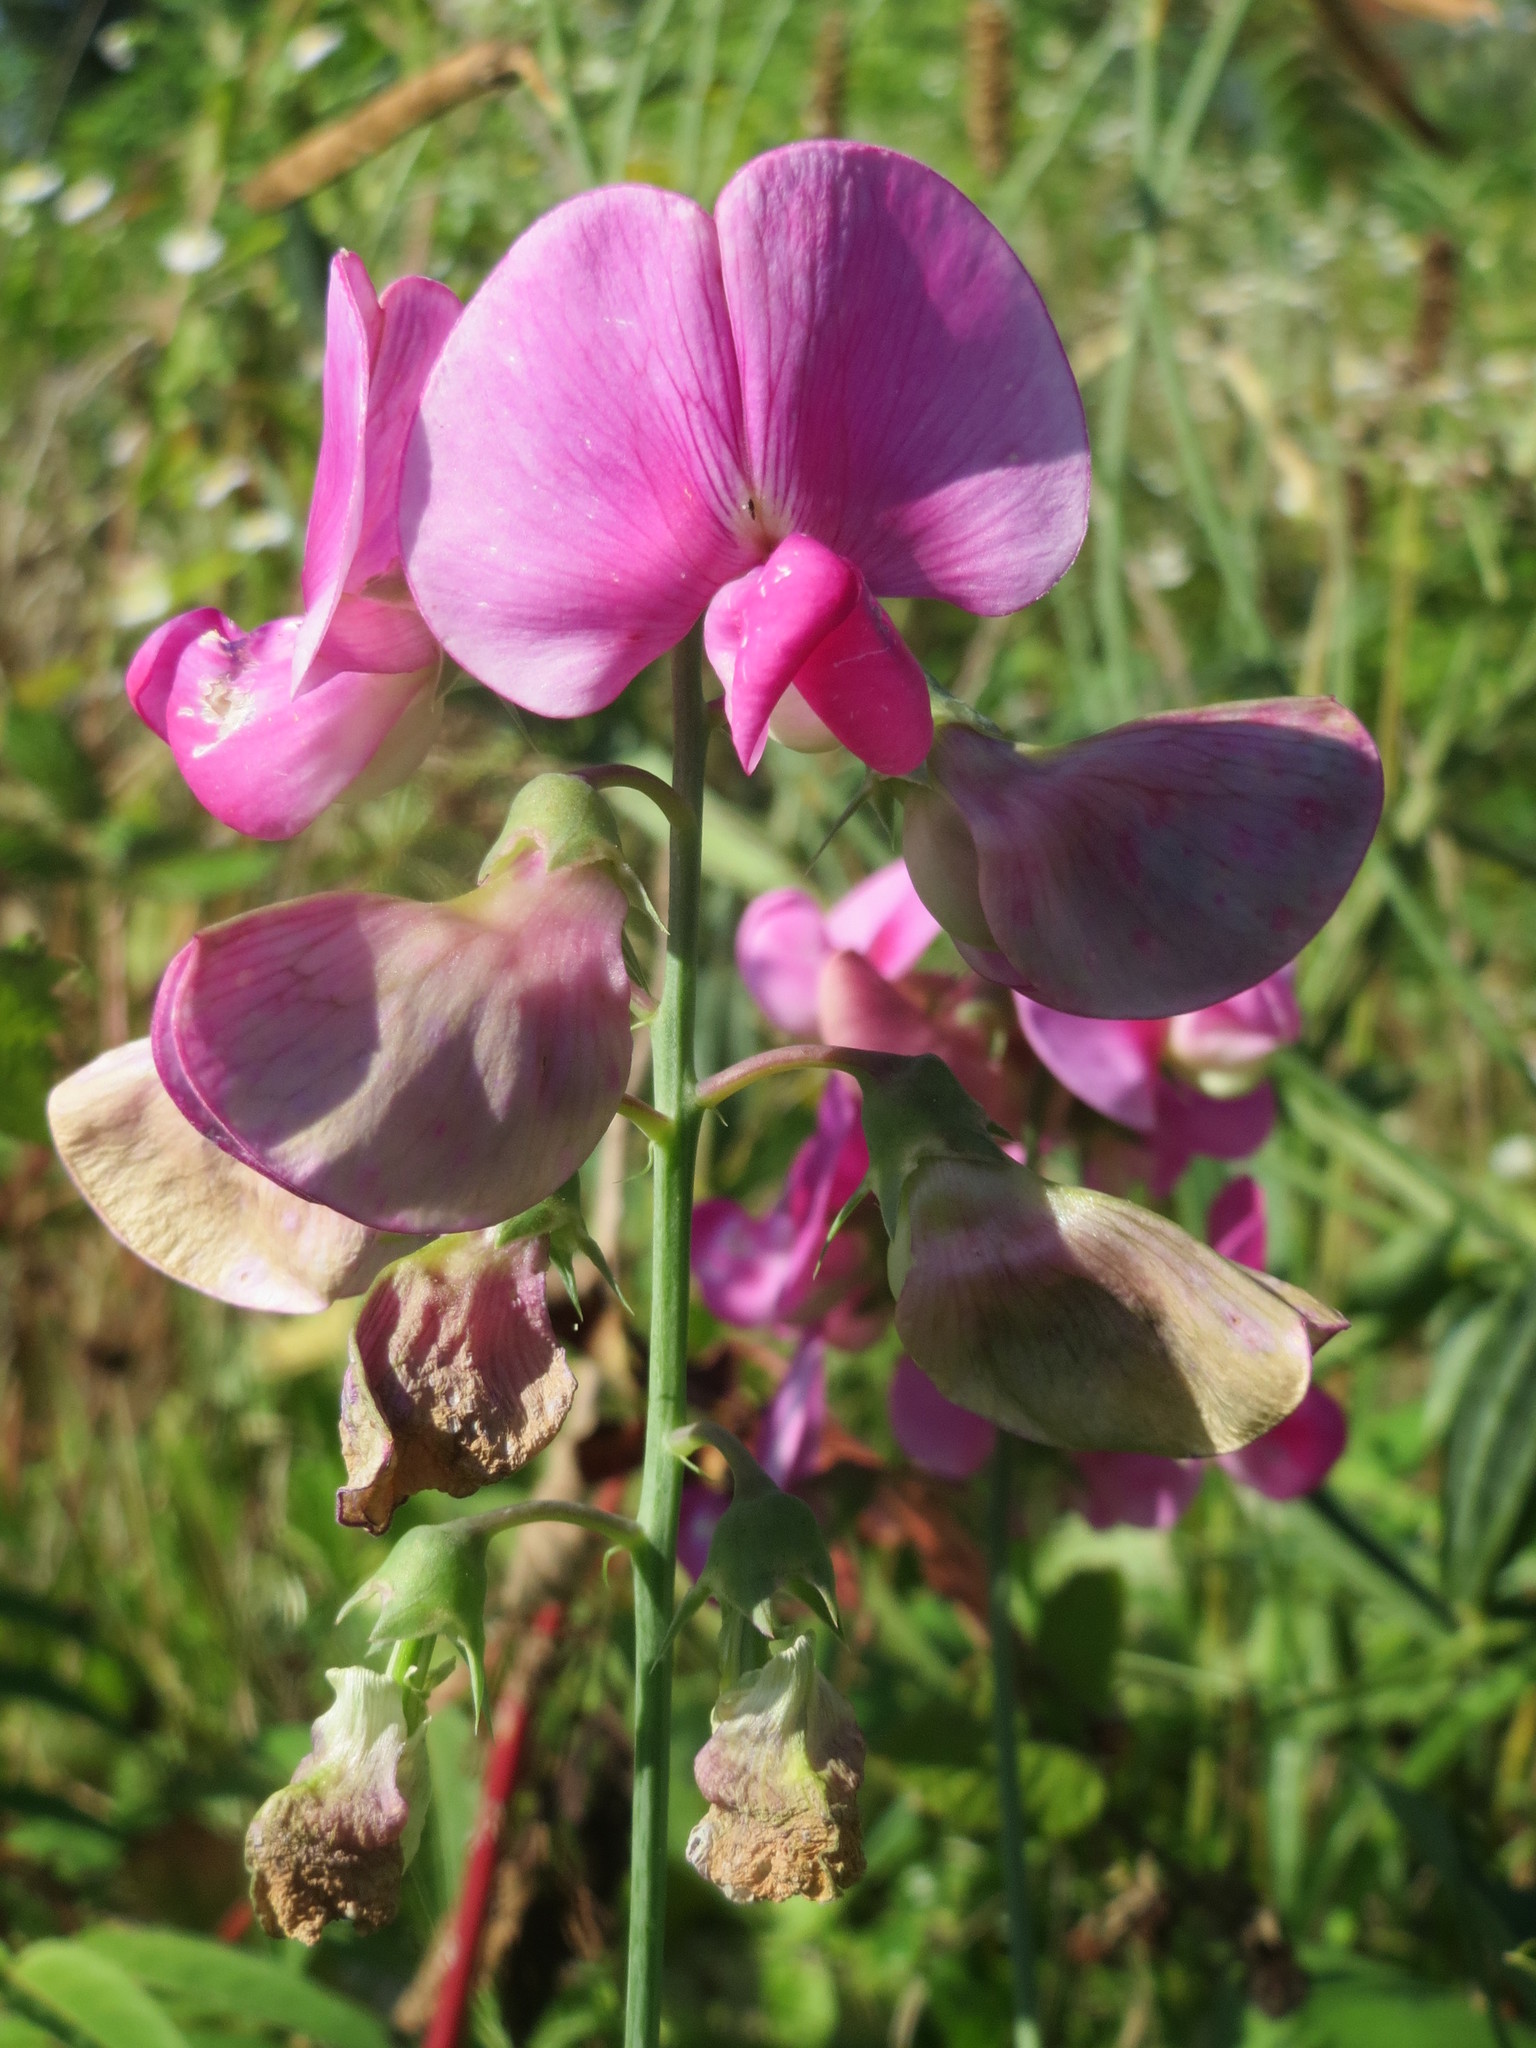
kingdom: Plantae
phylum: Tracheophyta
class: Magnoliopsida
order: Fabales
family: Fabaceae
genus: Lathyrus
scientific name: Lathyrus latifolius
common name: Perennial pea
